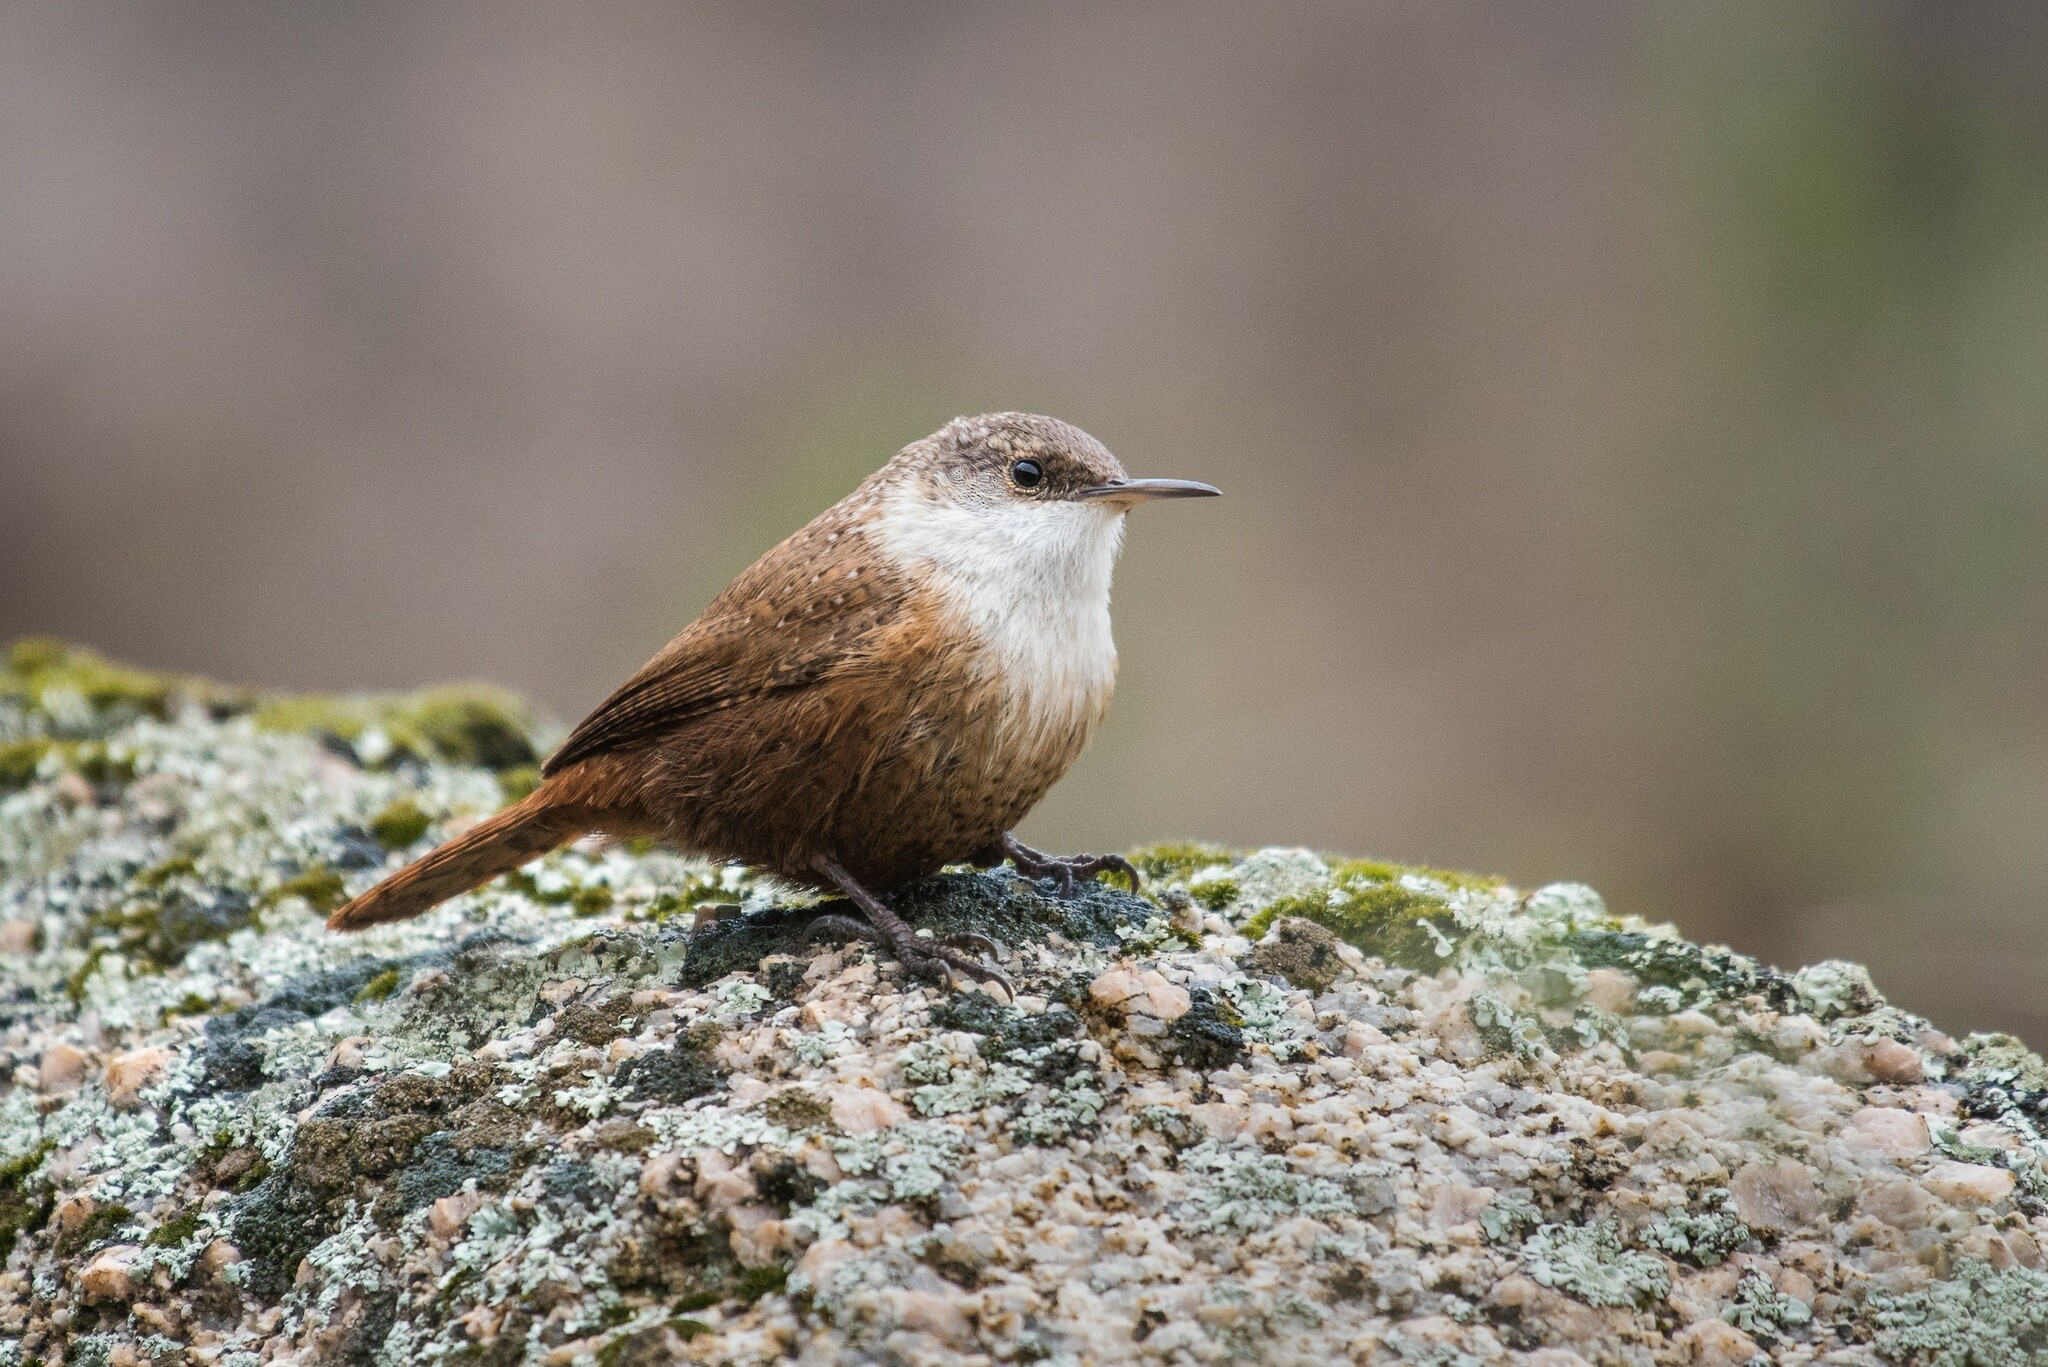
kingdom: Animalia
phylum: Chordata
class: Aves
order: Passeriformes
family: Troglodytidae
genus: Catherpes
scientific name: Catherpes mexicanus
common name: Canyon wren
